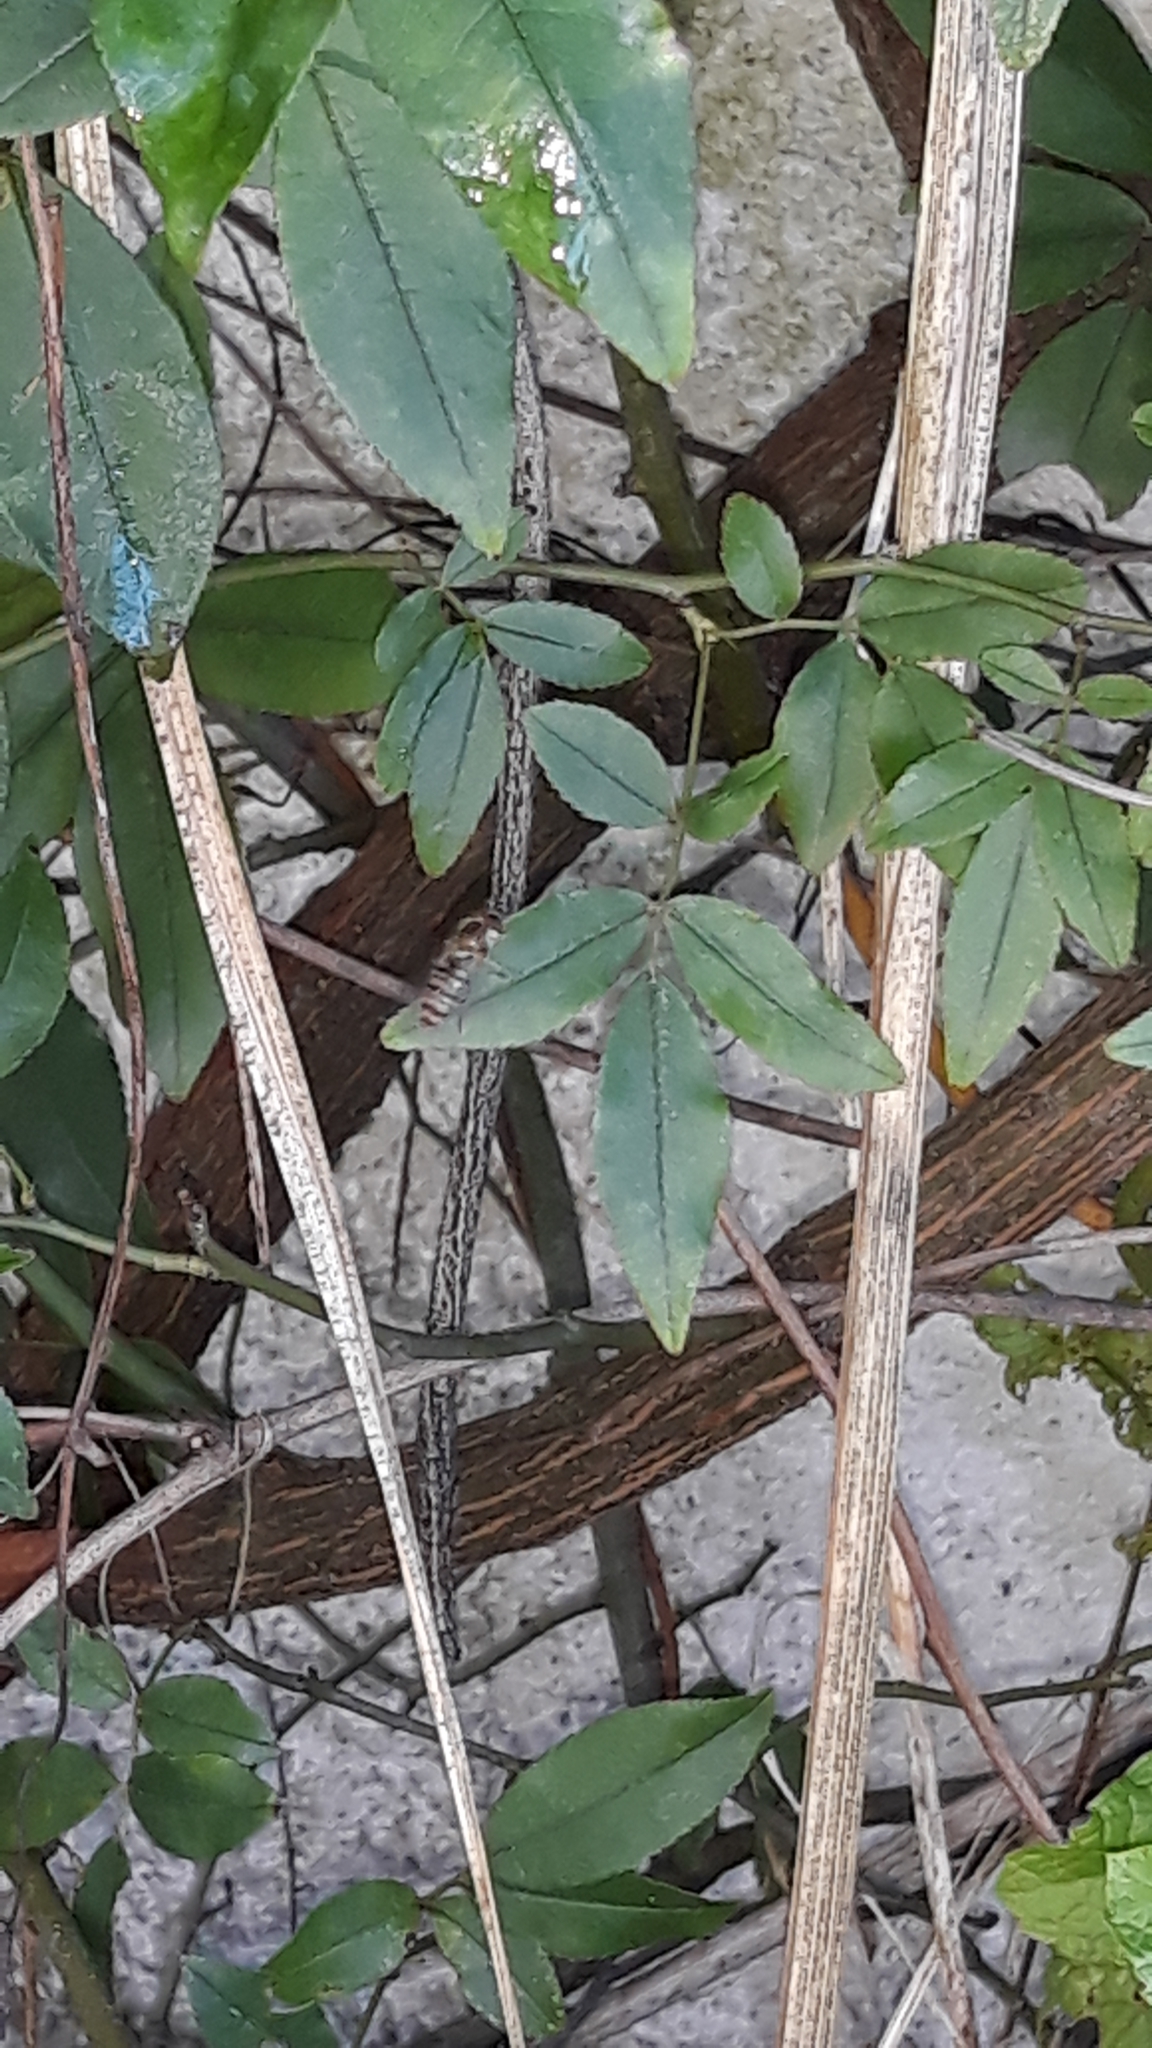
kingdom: Animalia
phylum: Arthropoda
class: Insecta
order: Diptera
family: Syrphidae
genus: Episyrphus
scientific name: Episyrphus balteatus
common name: Marmalade hoverfly
